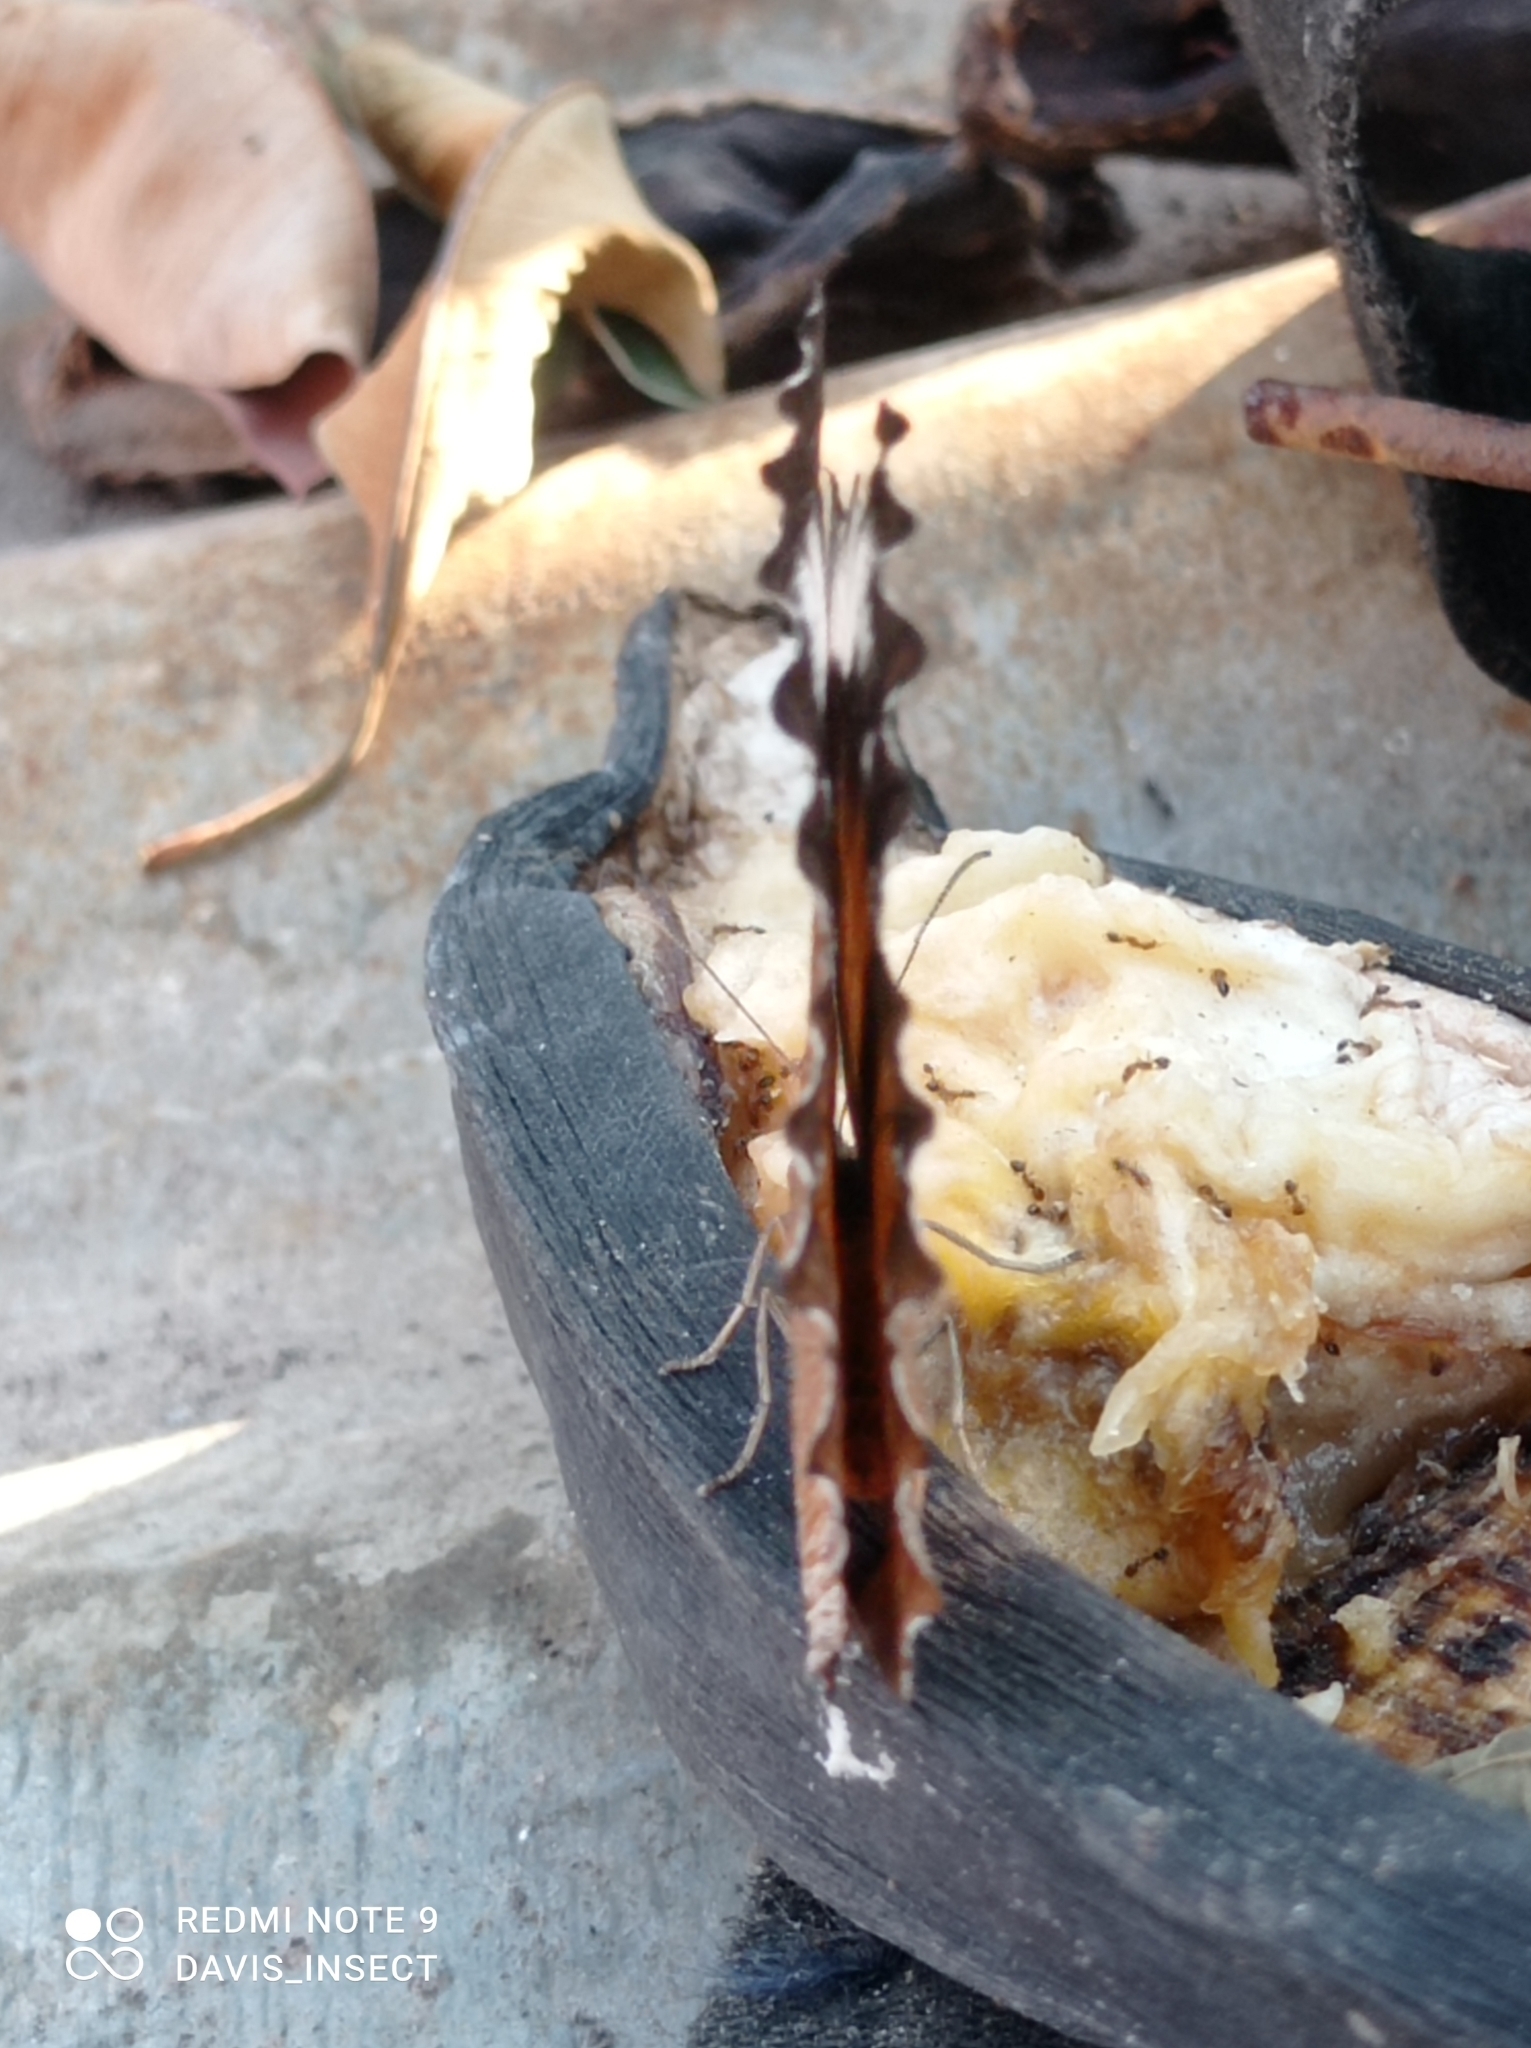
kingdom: Animalia
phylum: Arthropoda
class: Insecta
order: Lepidoptera
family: Nymphalidae
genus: Elymnias
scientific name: Elymnias hypermnestra
